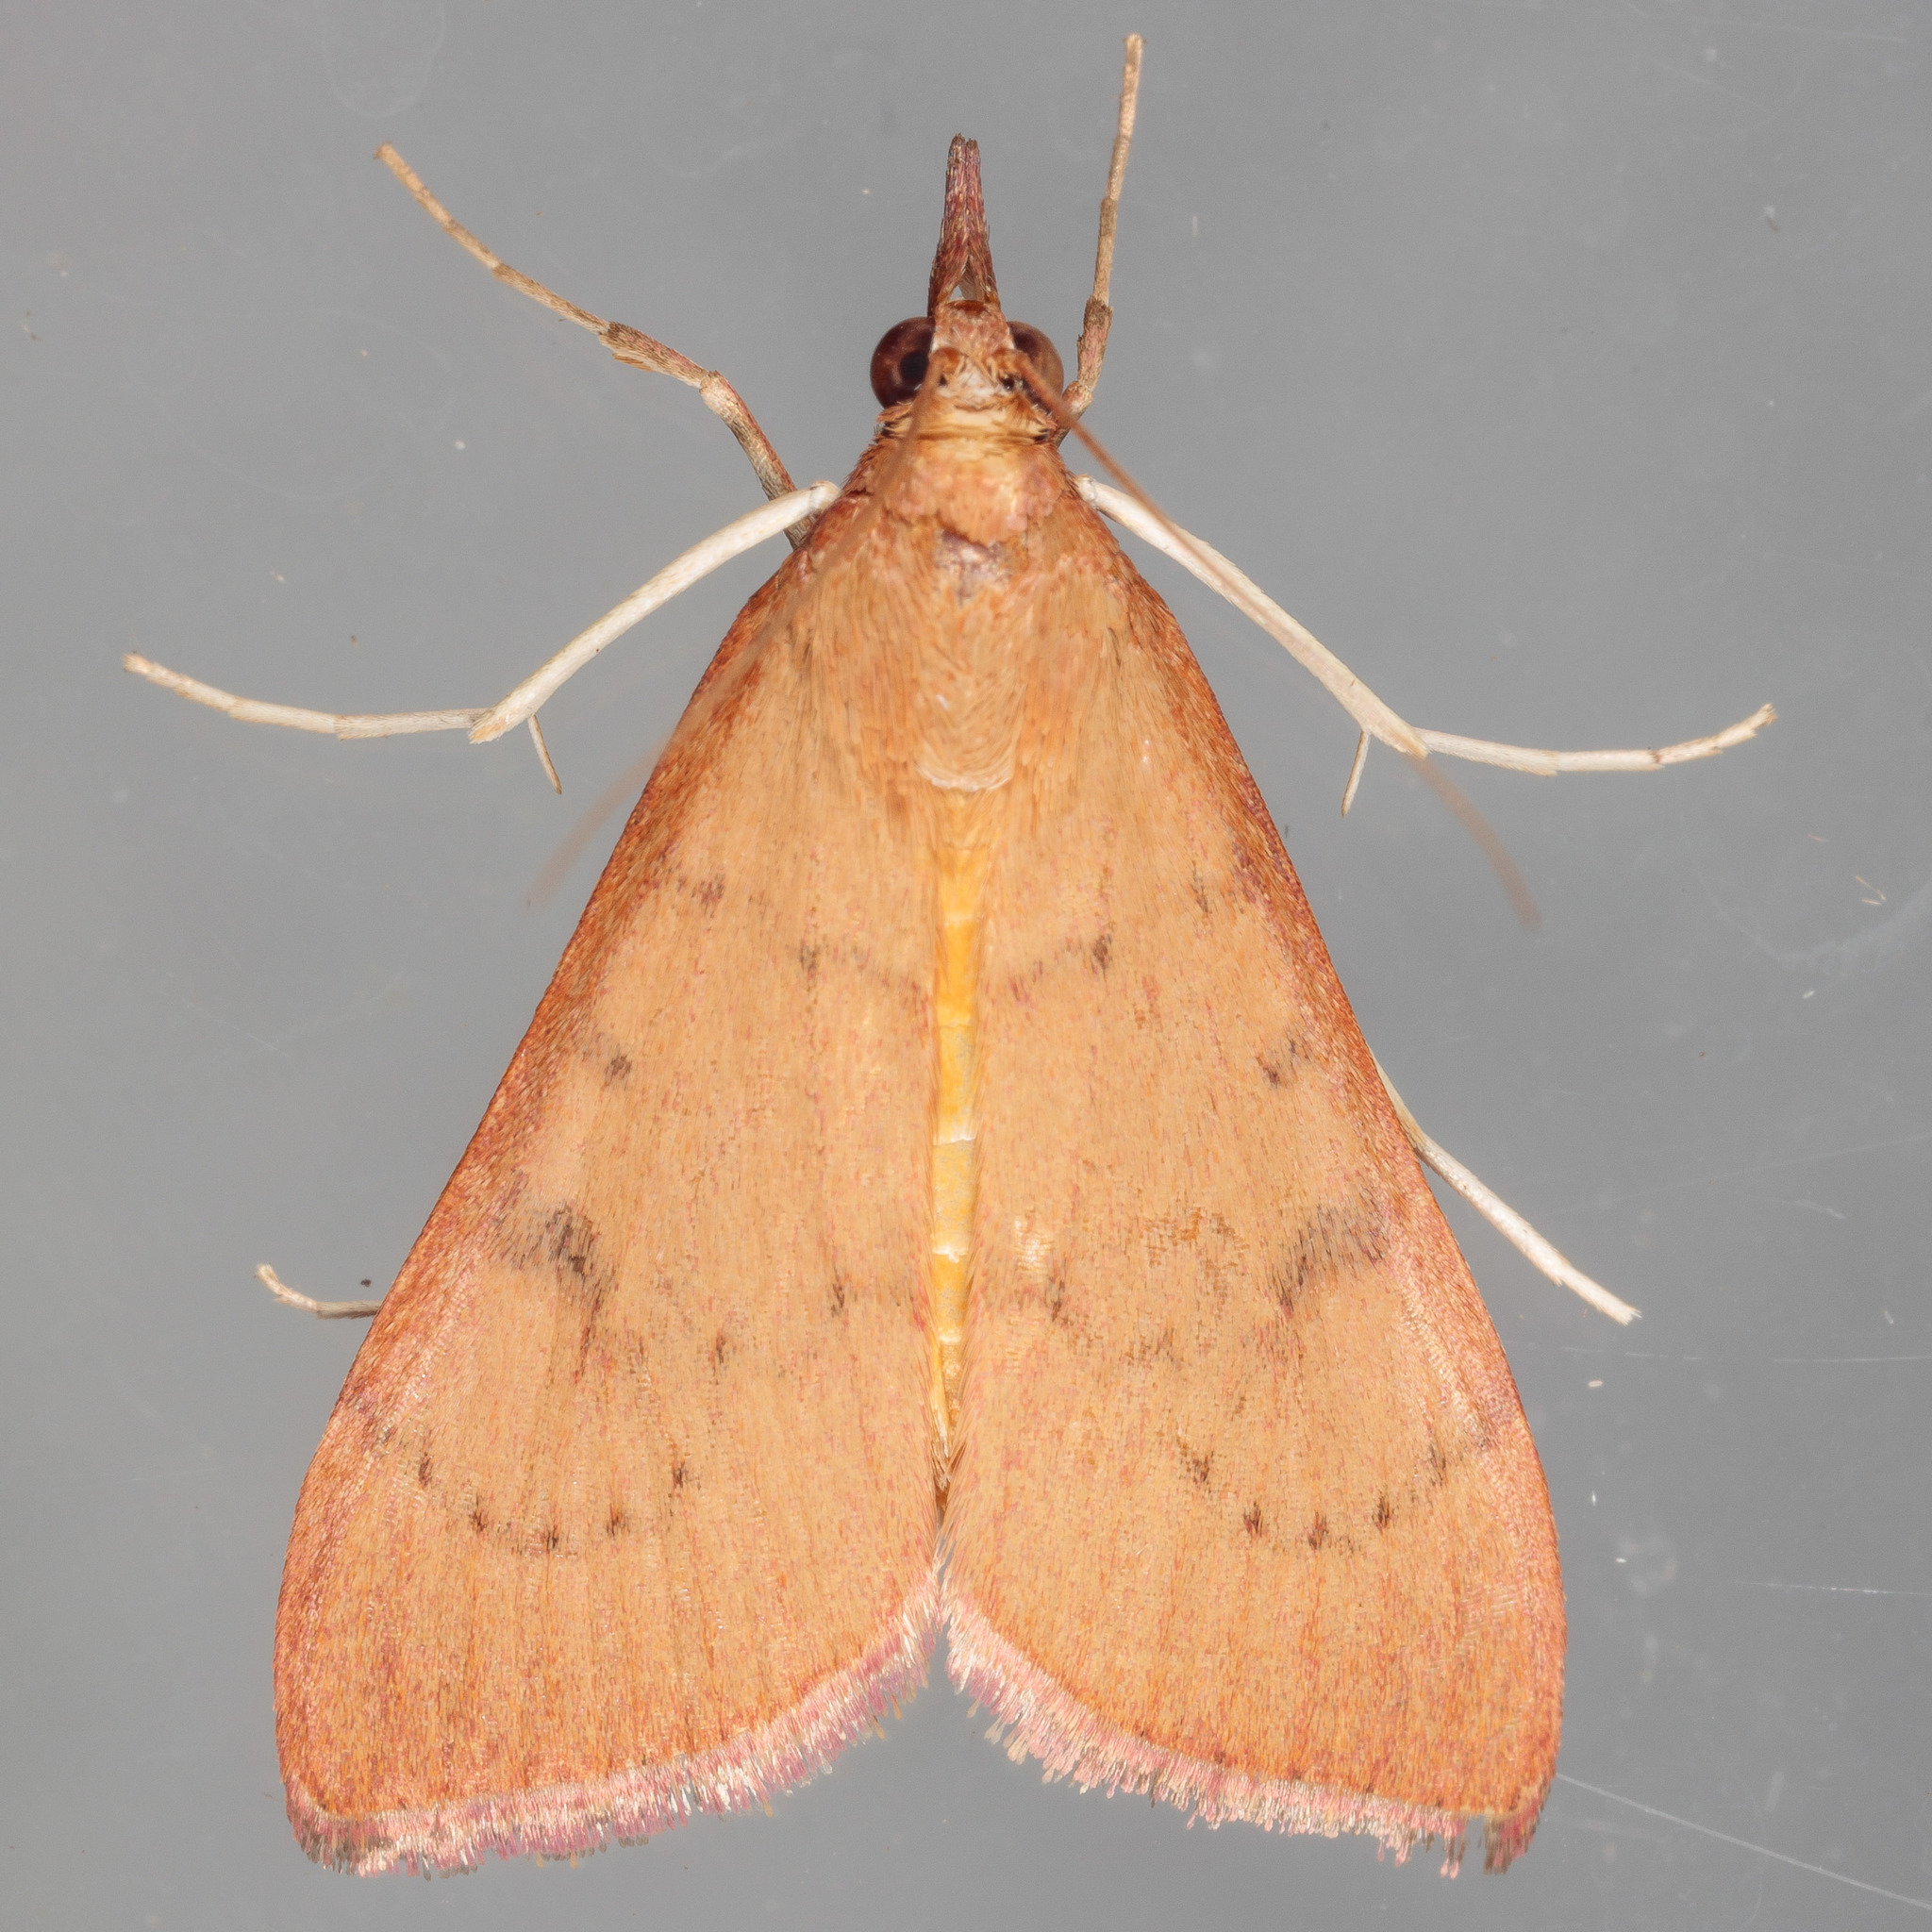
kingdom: Animalia
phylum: Arthropoda
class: Insecta
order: Lepidoptera
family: Crambidae
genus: Uresiphita
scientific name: Uresiphita reversalis
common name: Genista broom moth
